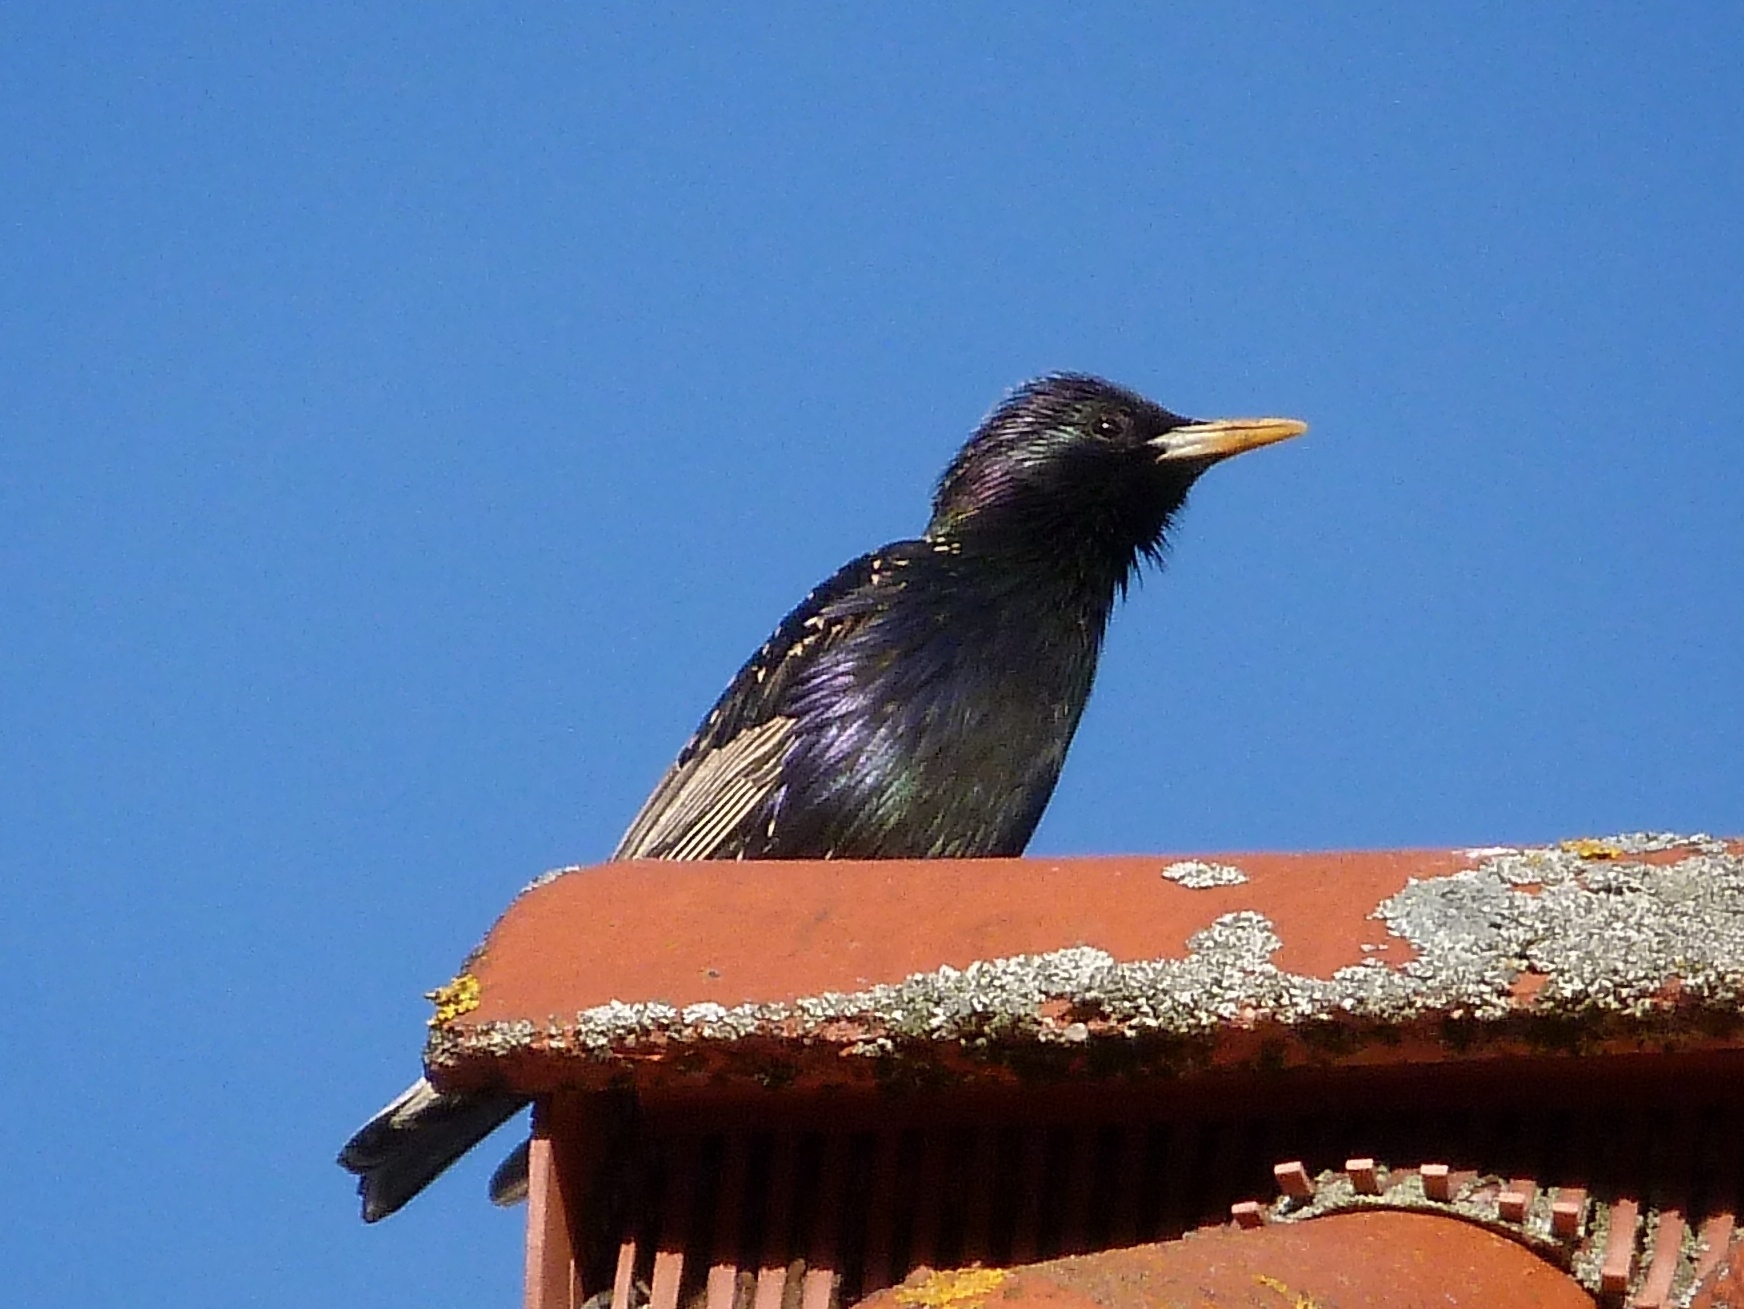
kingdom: Animalia
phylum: Chordata
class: Aves
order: Passeriformes
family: Sturnidae
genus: Sturnus
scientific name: Sturnus vulgaris
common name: Common starling
